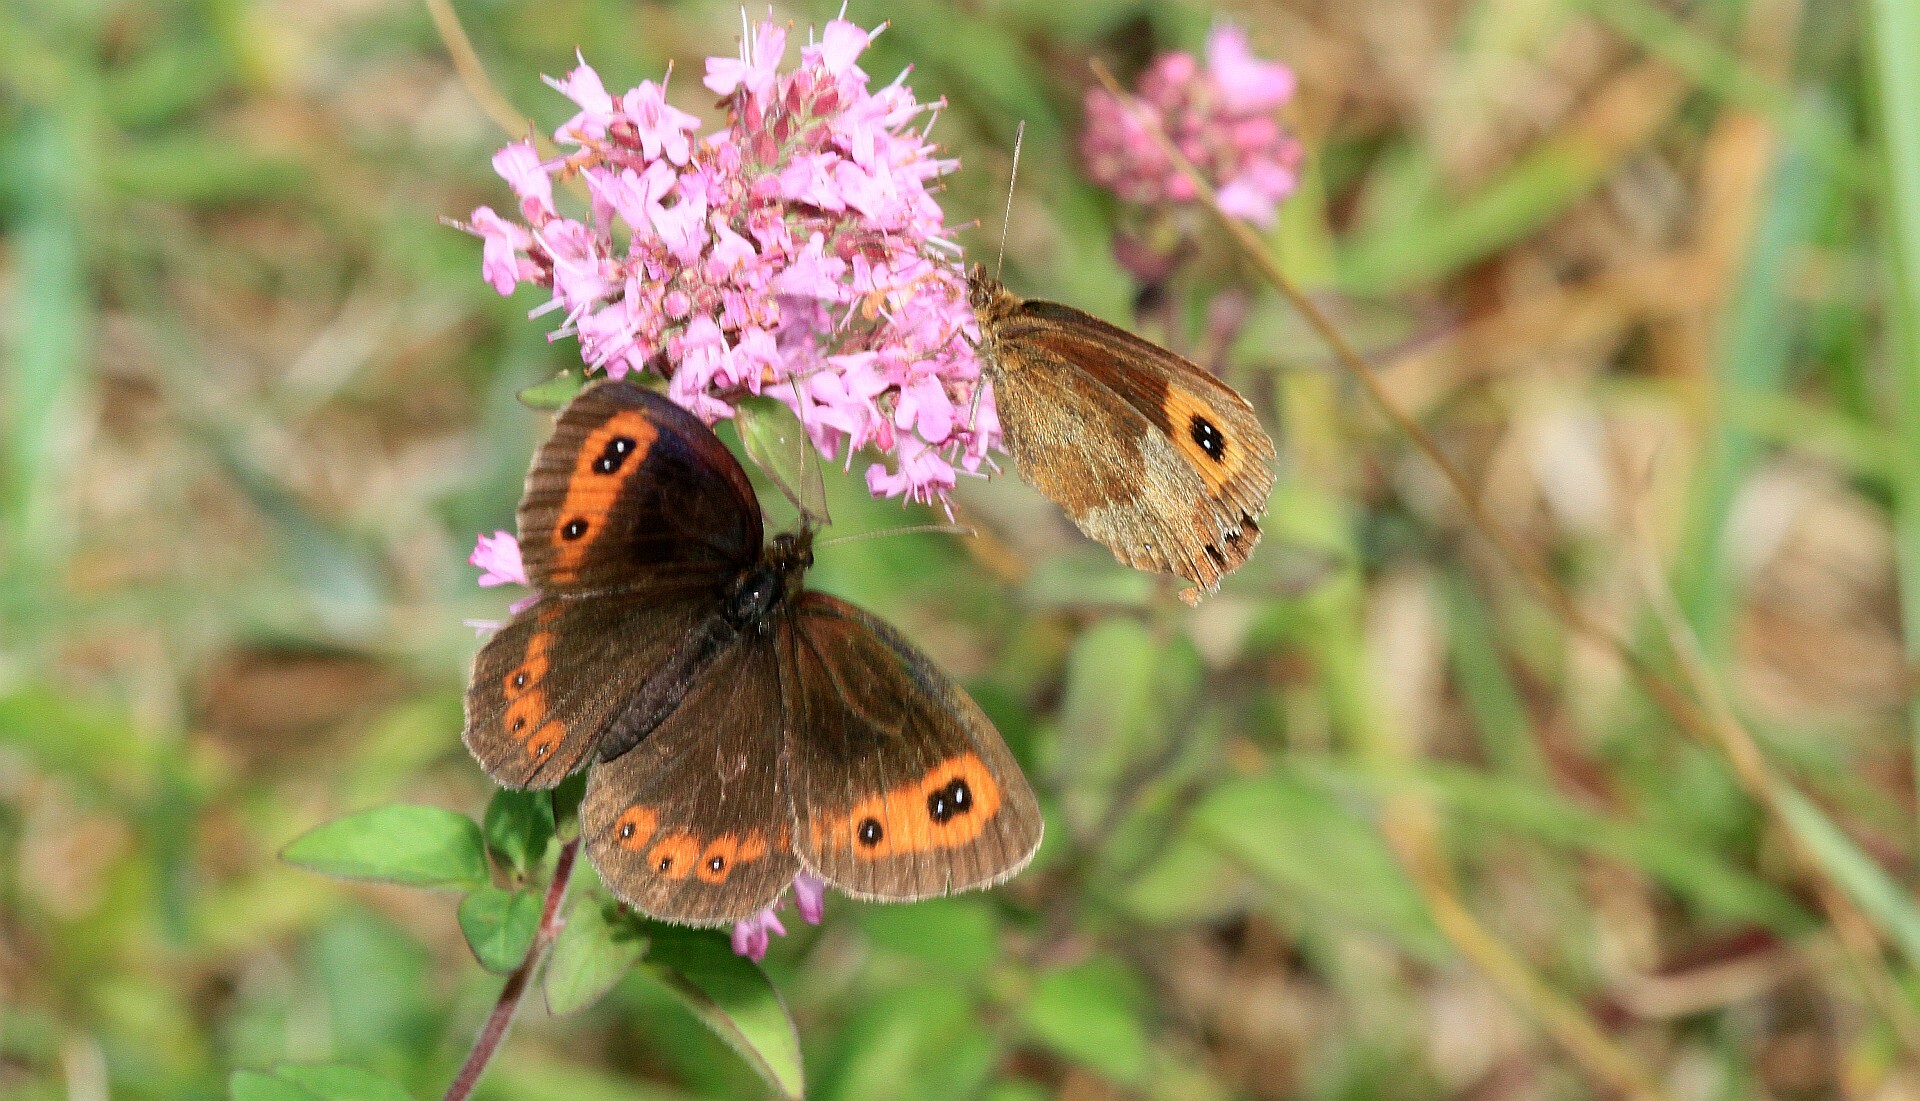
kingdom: Animalia
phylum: Arthropoda
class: Insecta
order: Lepidoptera
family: Nymphalidae
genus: Erebia
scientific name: Erebia aethiops
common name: Scotch argus
